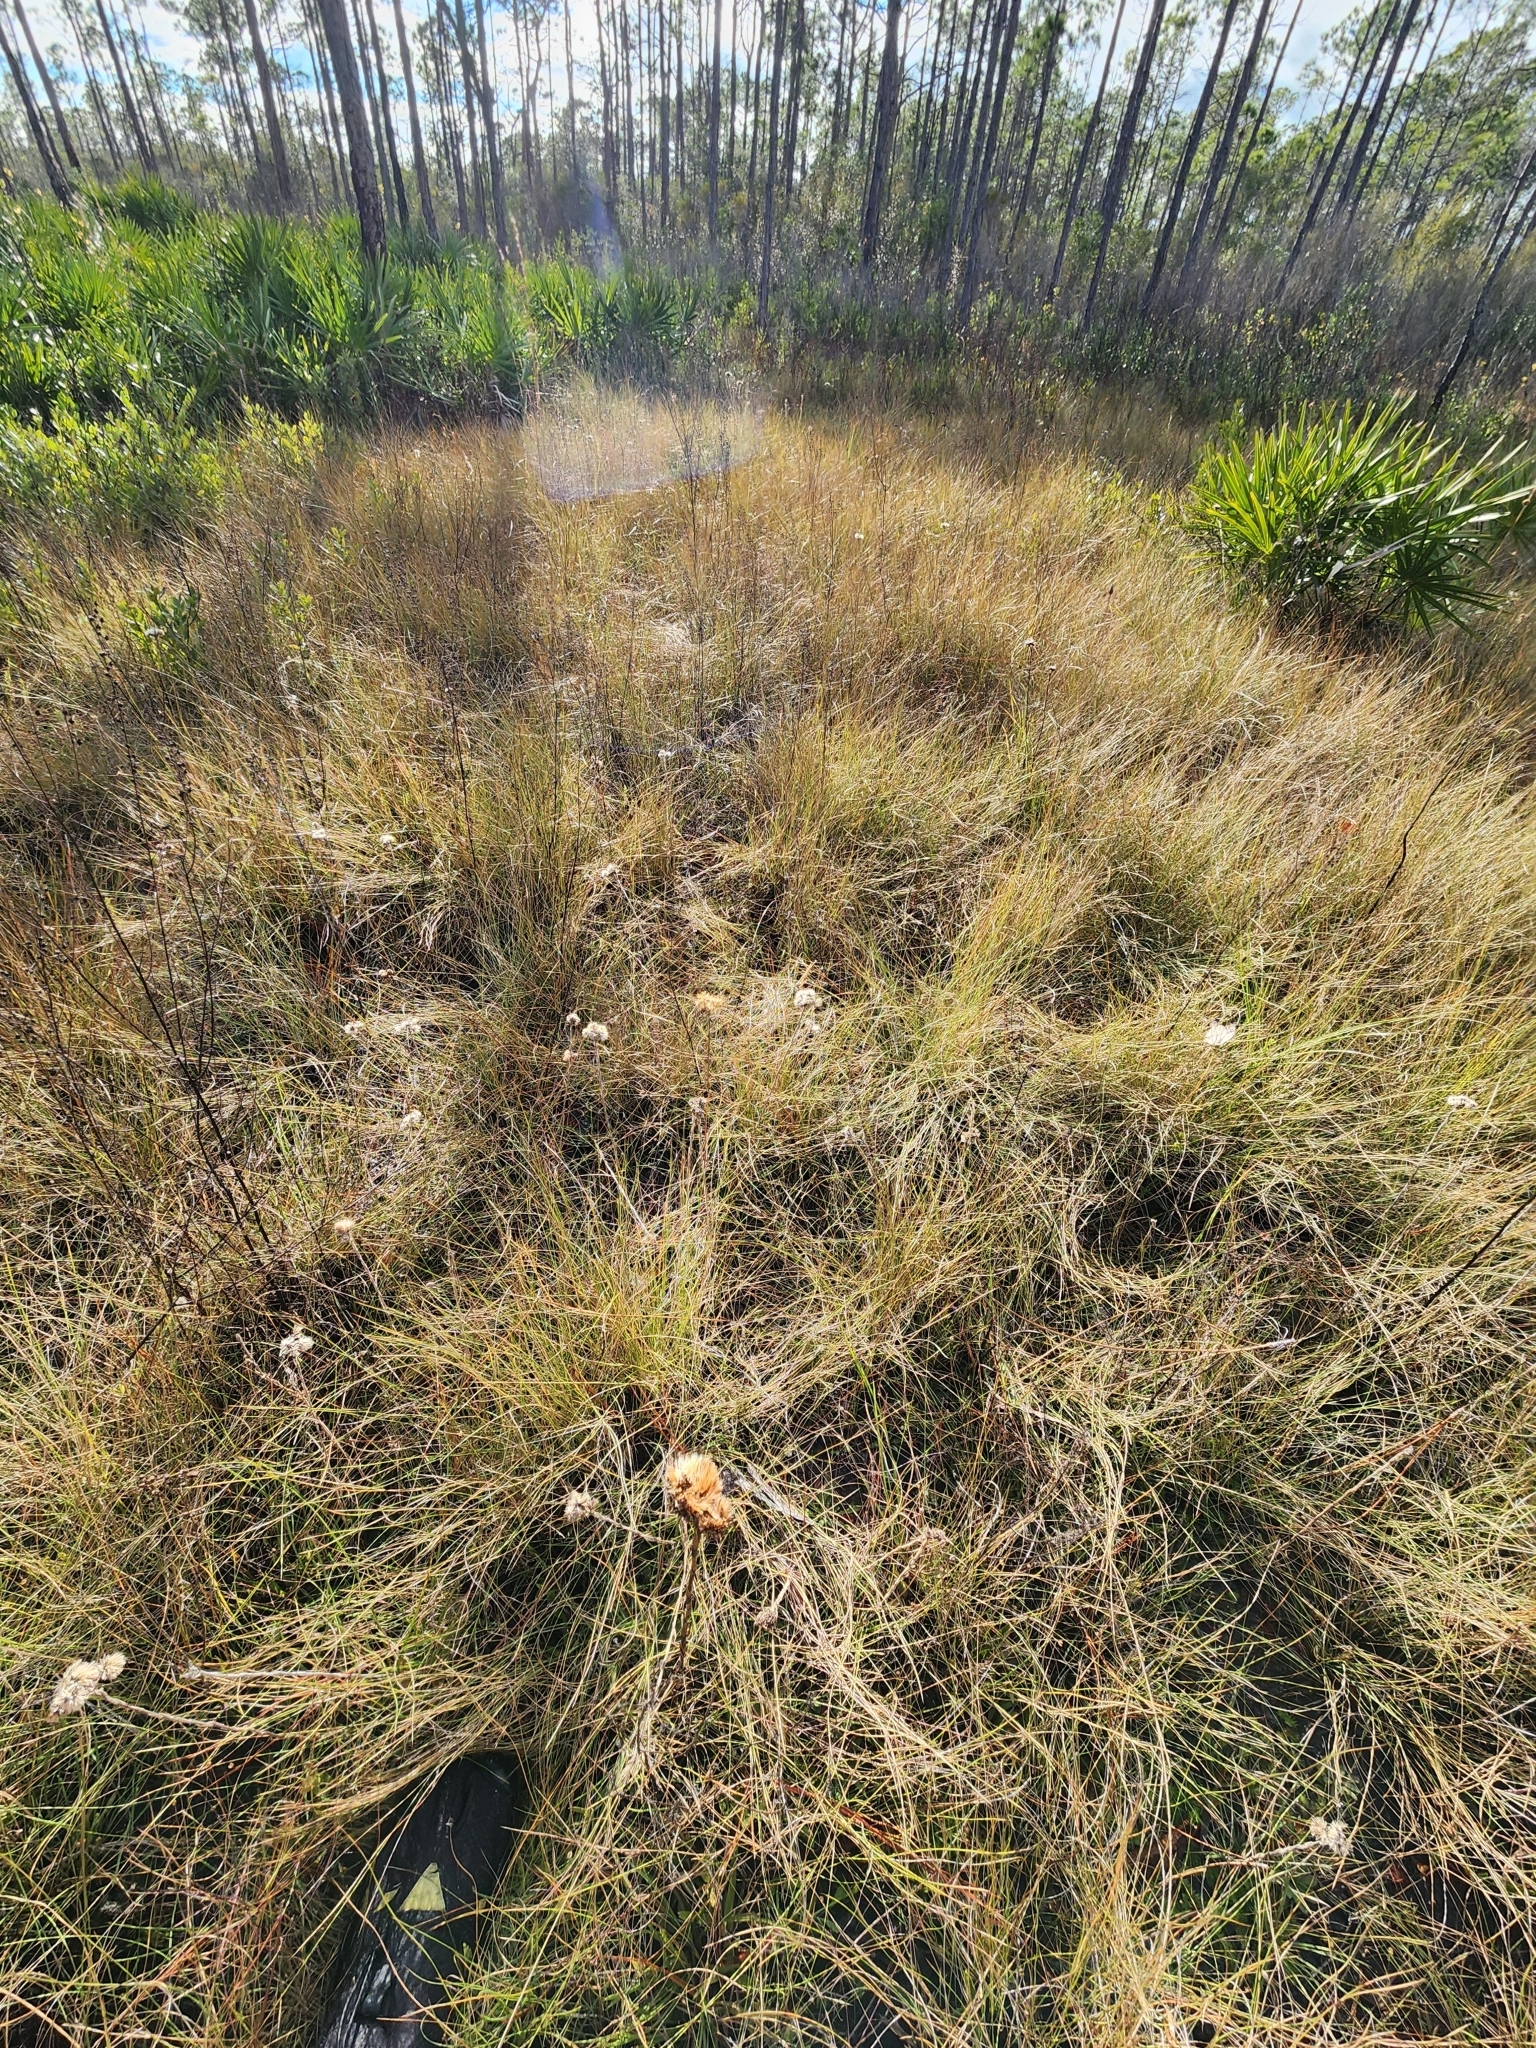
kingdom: Plantae
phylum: Tracheophyta
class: Magnoliopsida
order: Asterales
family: Asteraceae
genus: Carphephorus
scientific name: Carphephorus pseudoliatris
